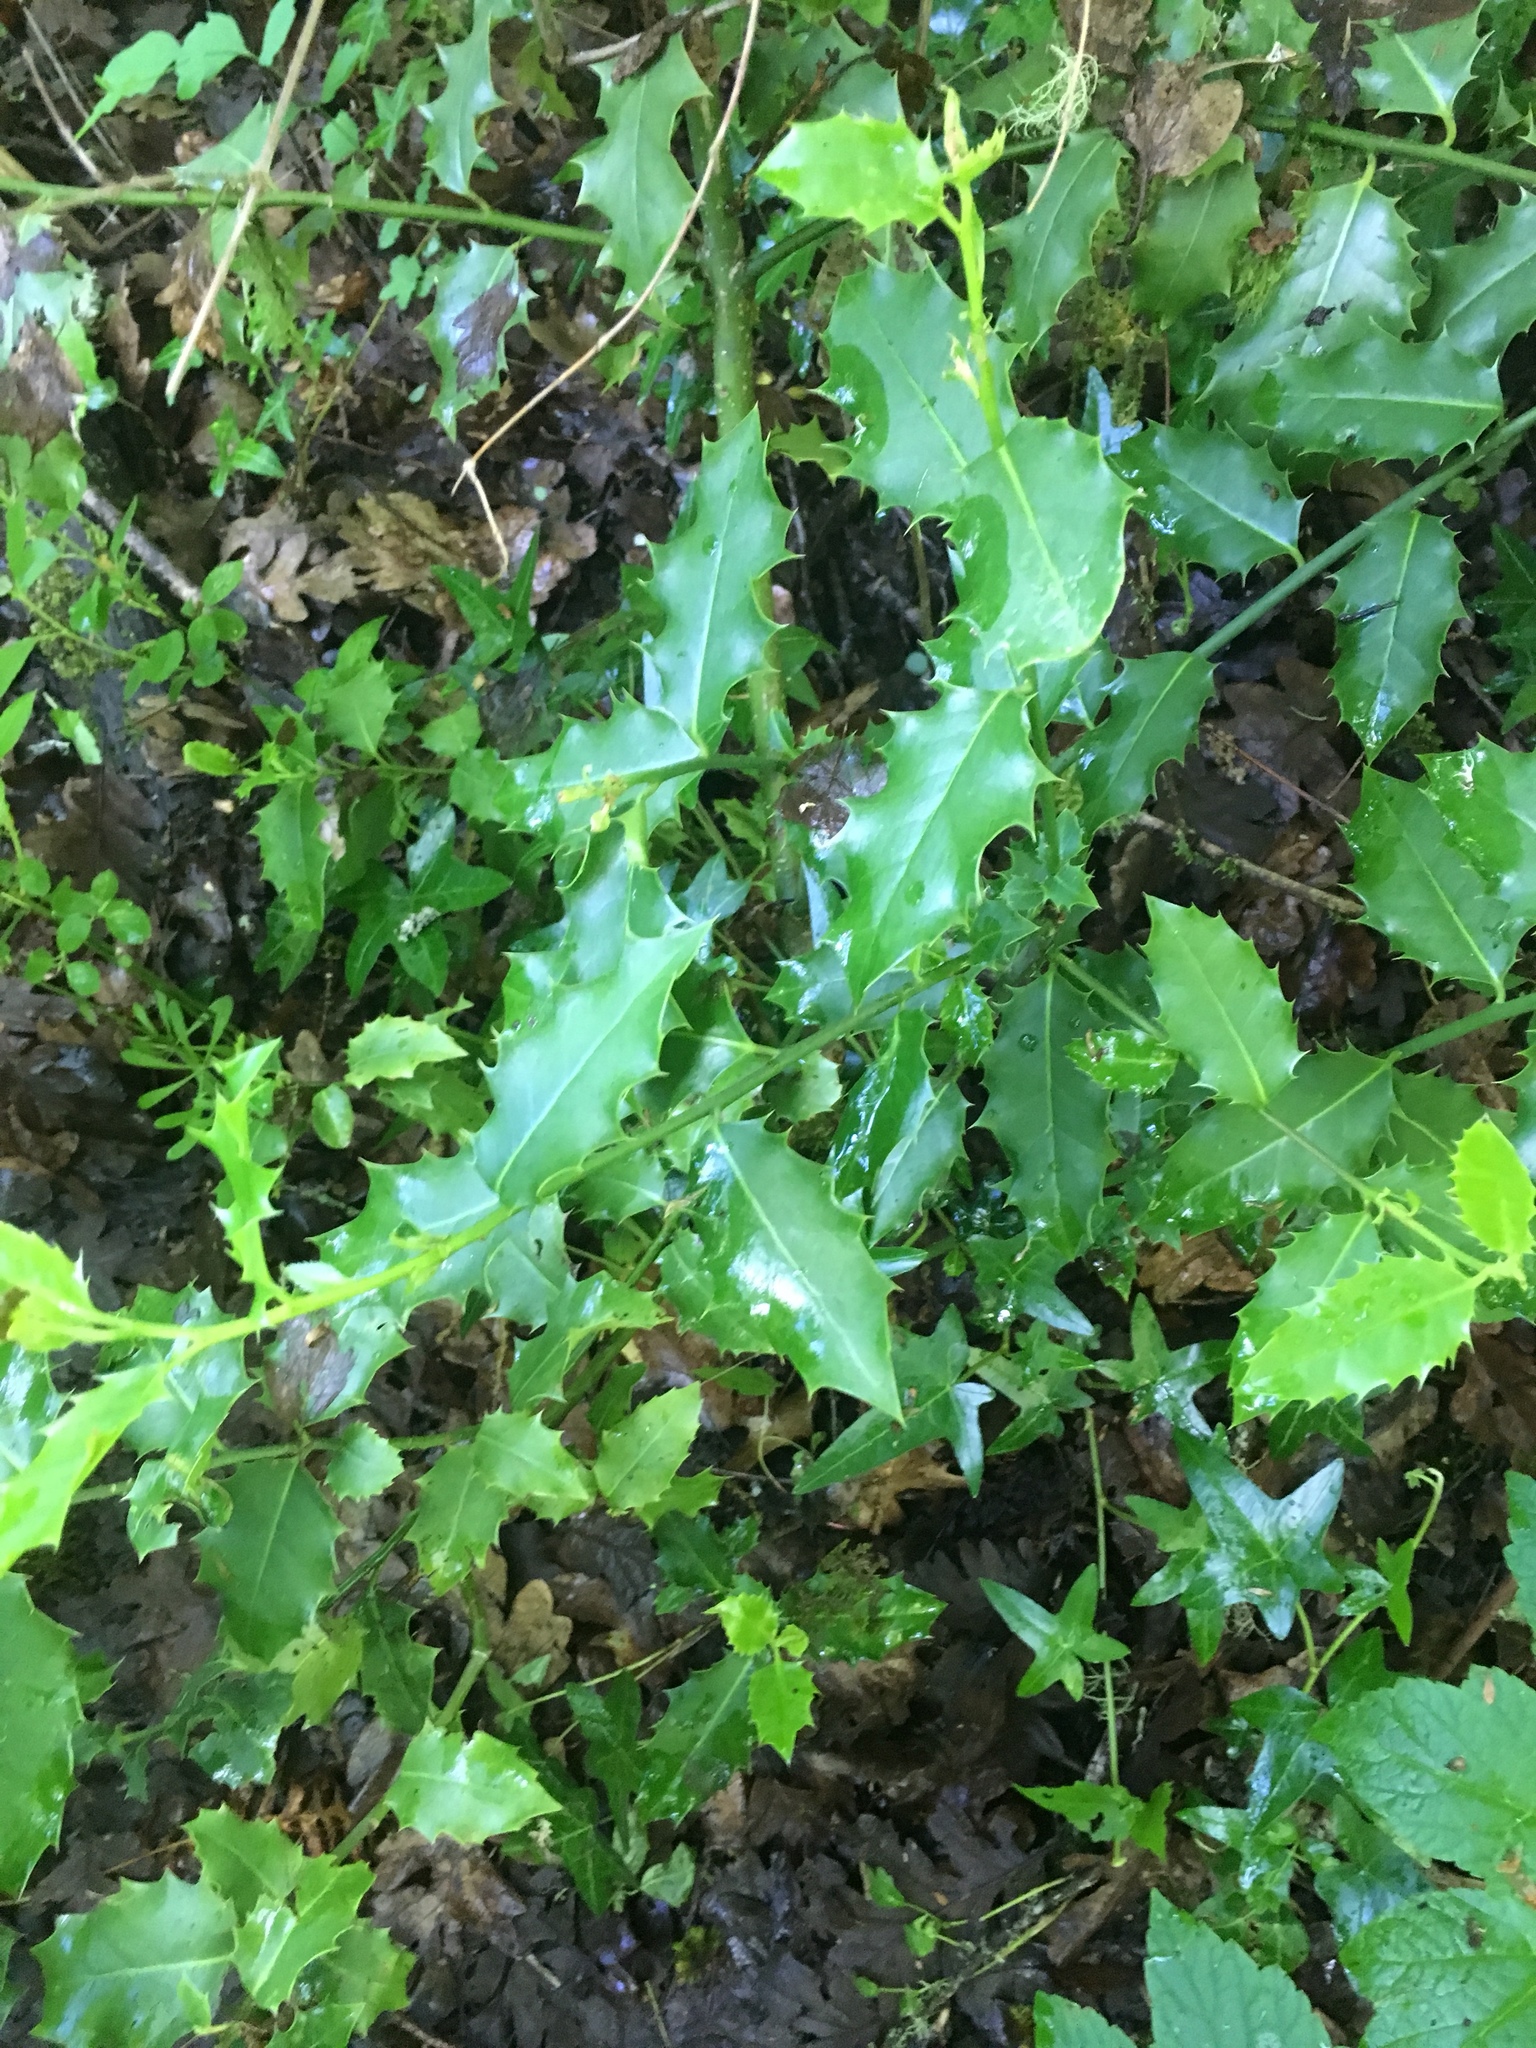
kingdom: Plantae
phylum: Tracheophyta
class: Magnoliopsida
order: Aquifoliales
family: Aquifoliaceae
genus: Ilex
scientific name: Ilex aquifolium
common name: English holly
